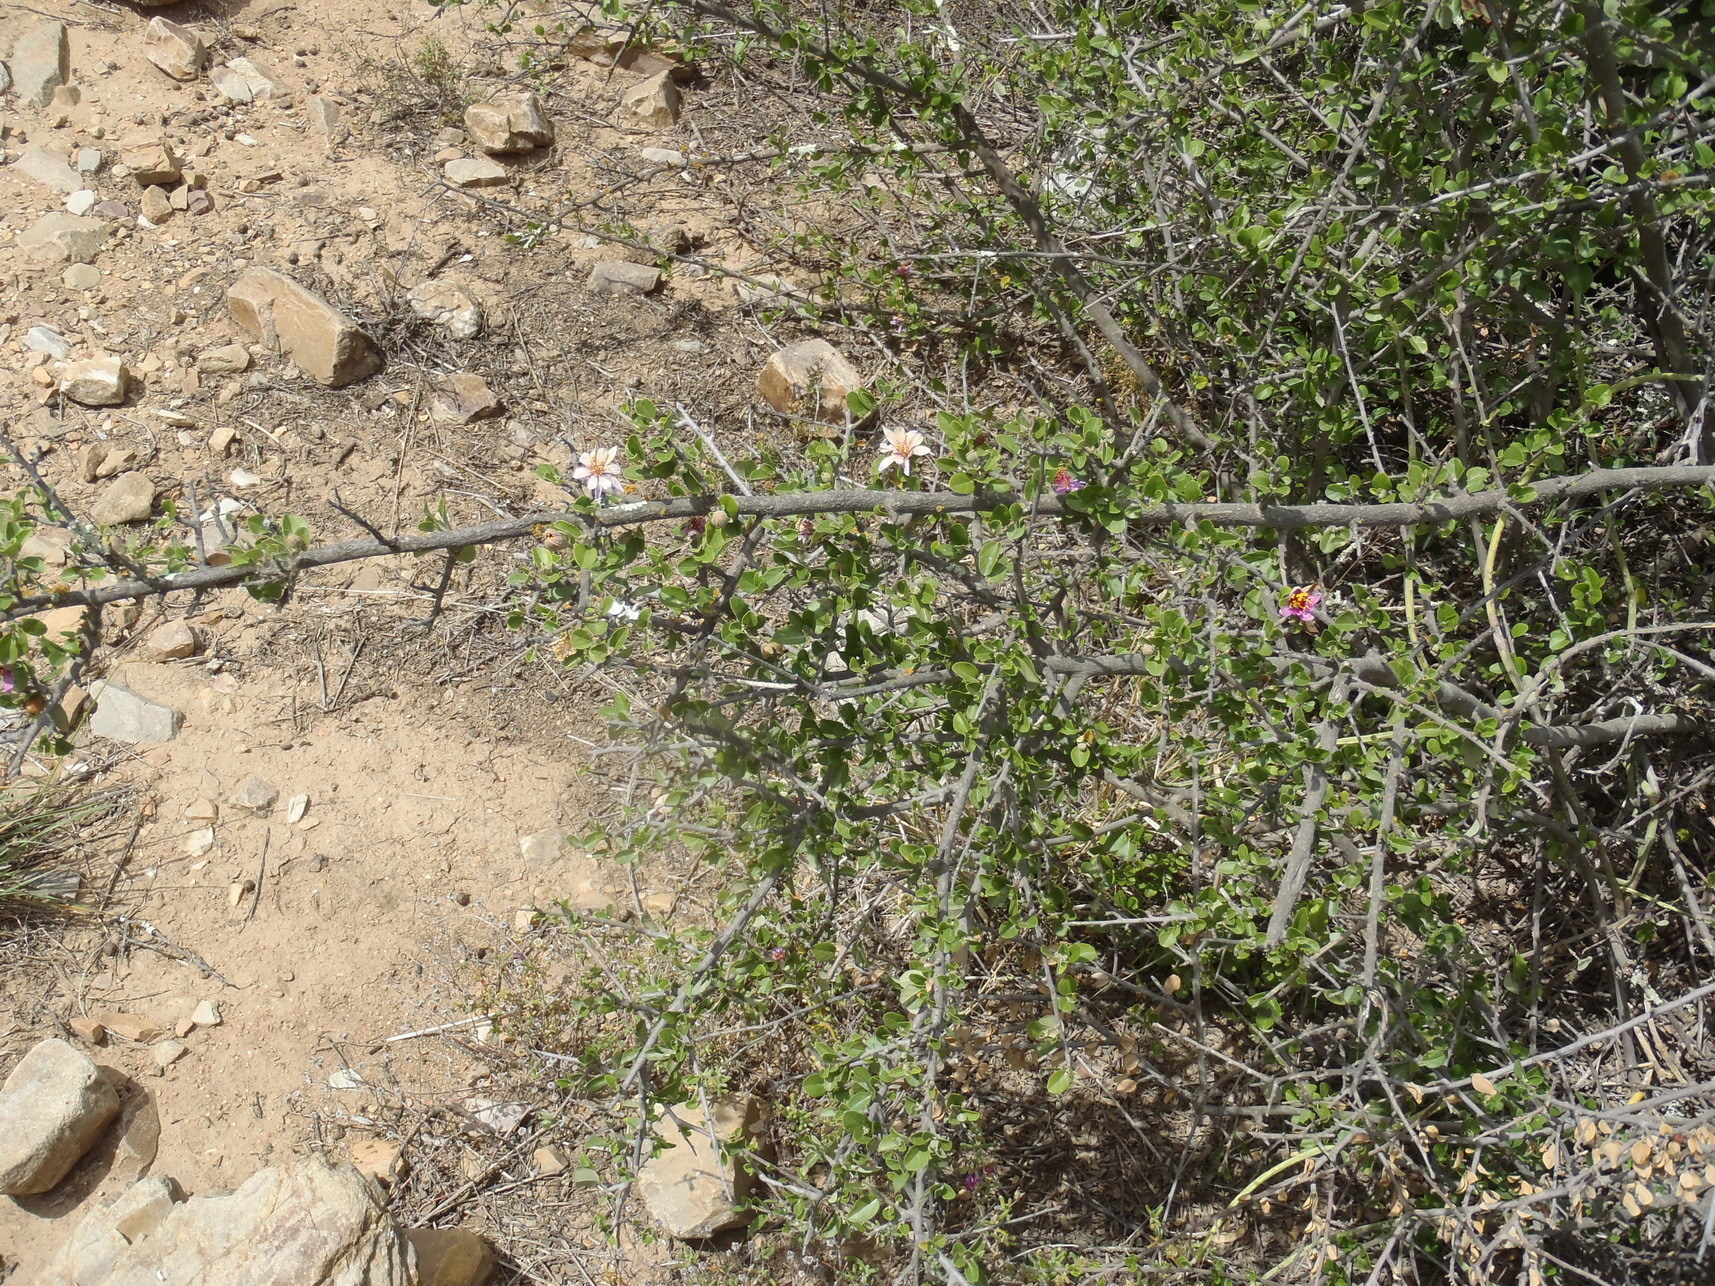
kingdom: Plantae
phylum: Tracheophyta
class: Magnoliopsida
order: Malvales
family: Malvaceae
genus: Grewia
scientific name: Grewia robusta
